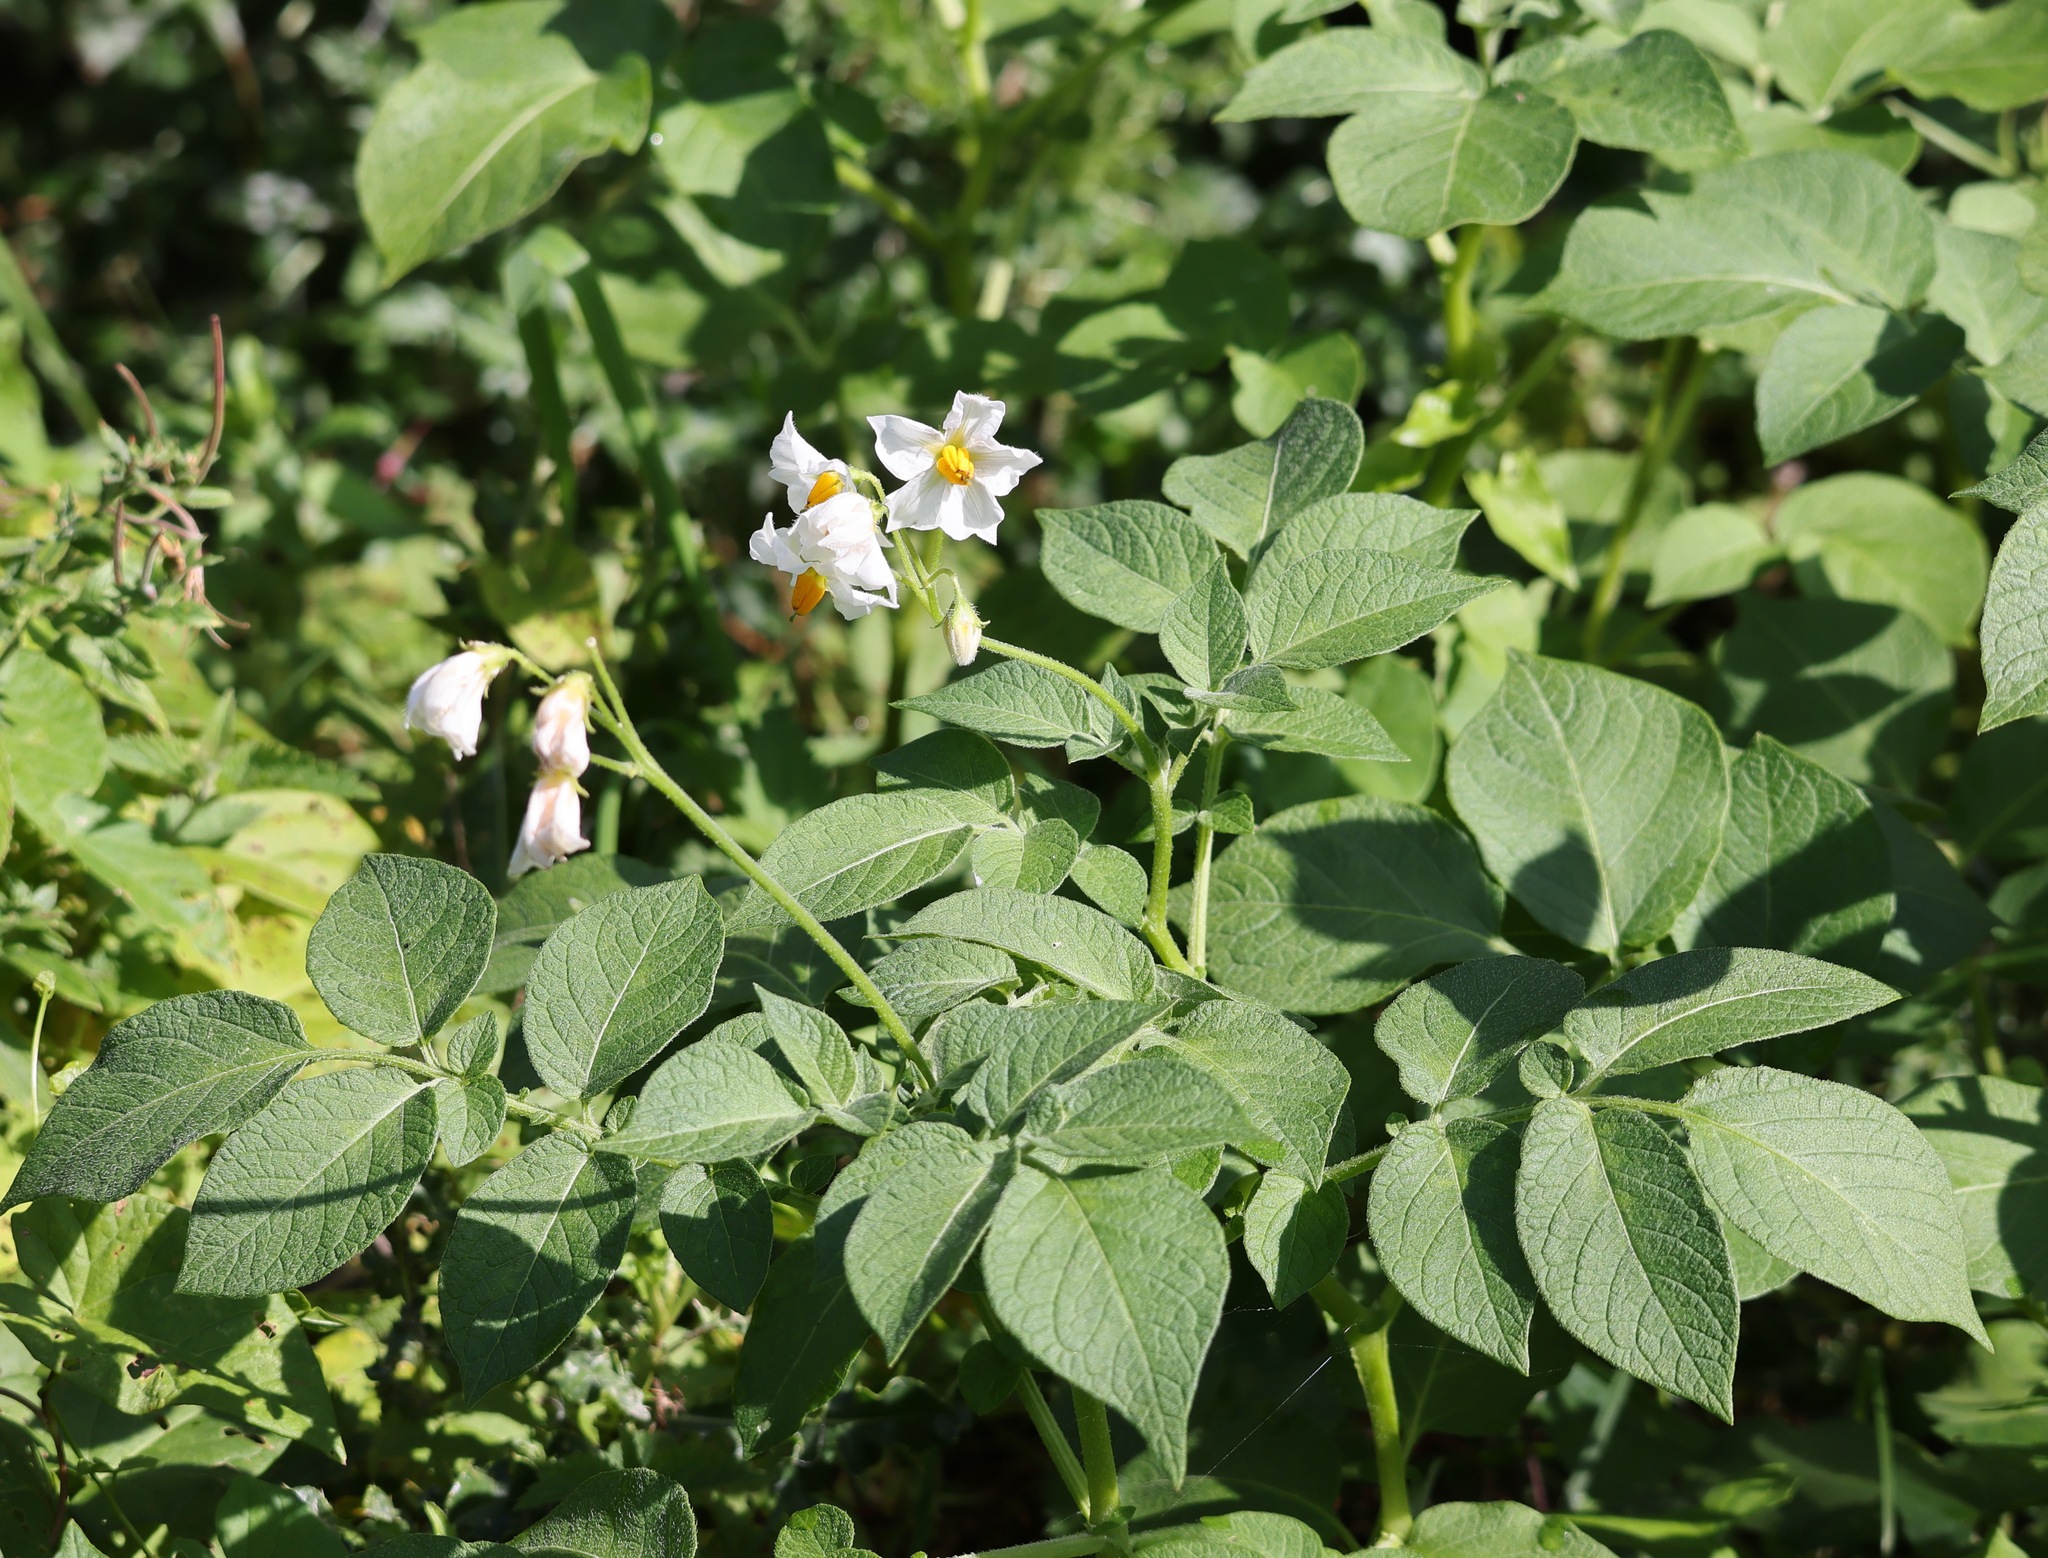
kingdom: Plantae
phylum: Tracheophyta
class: Magnoliopsida
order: Solanales
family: Solanaceae
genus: Solanum
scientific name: Solanum tuberosum
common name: Potato
